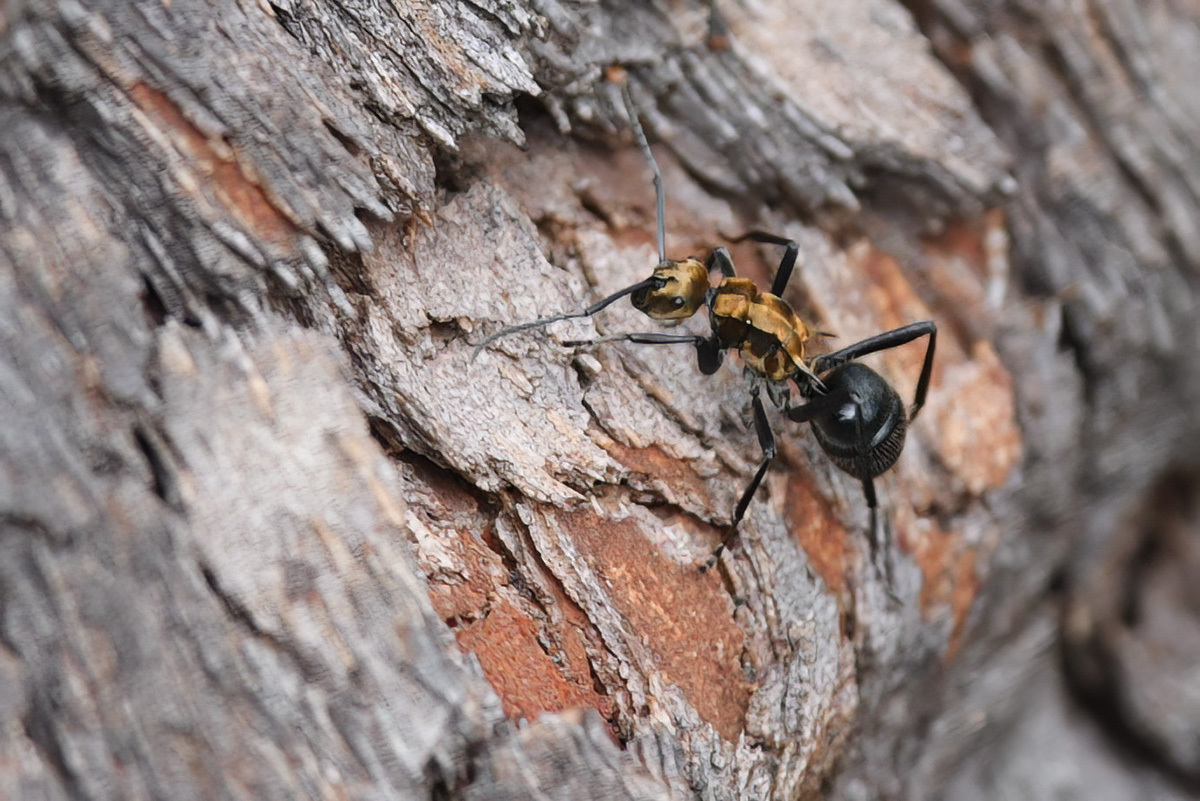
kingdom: Animalia
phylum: Arthropoda
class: Insecta
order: Hymenoptera
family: Formicidae
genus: Polyrhachis
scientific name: Polyrhachis semiaurata
